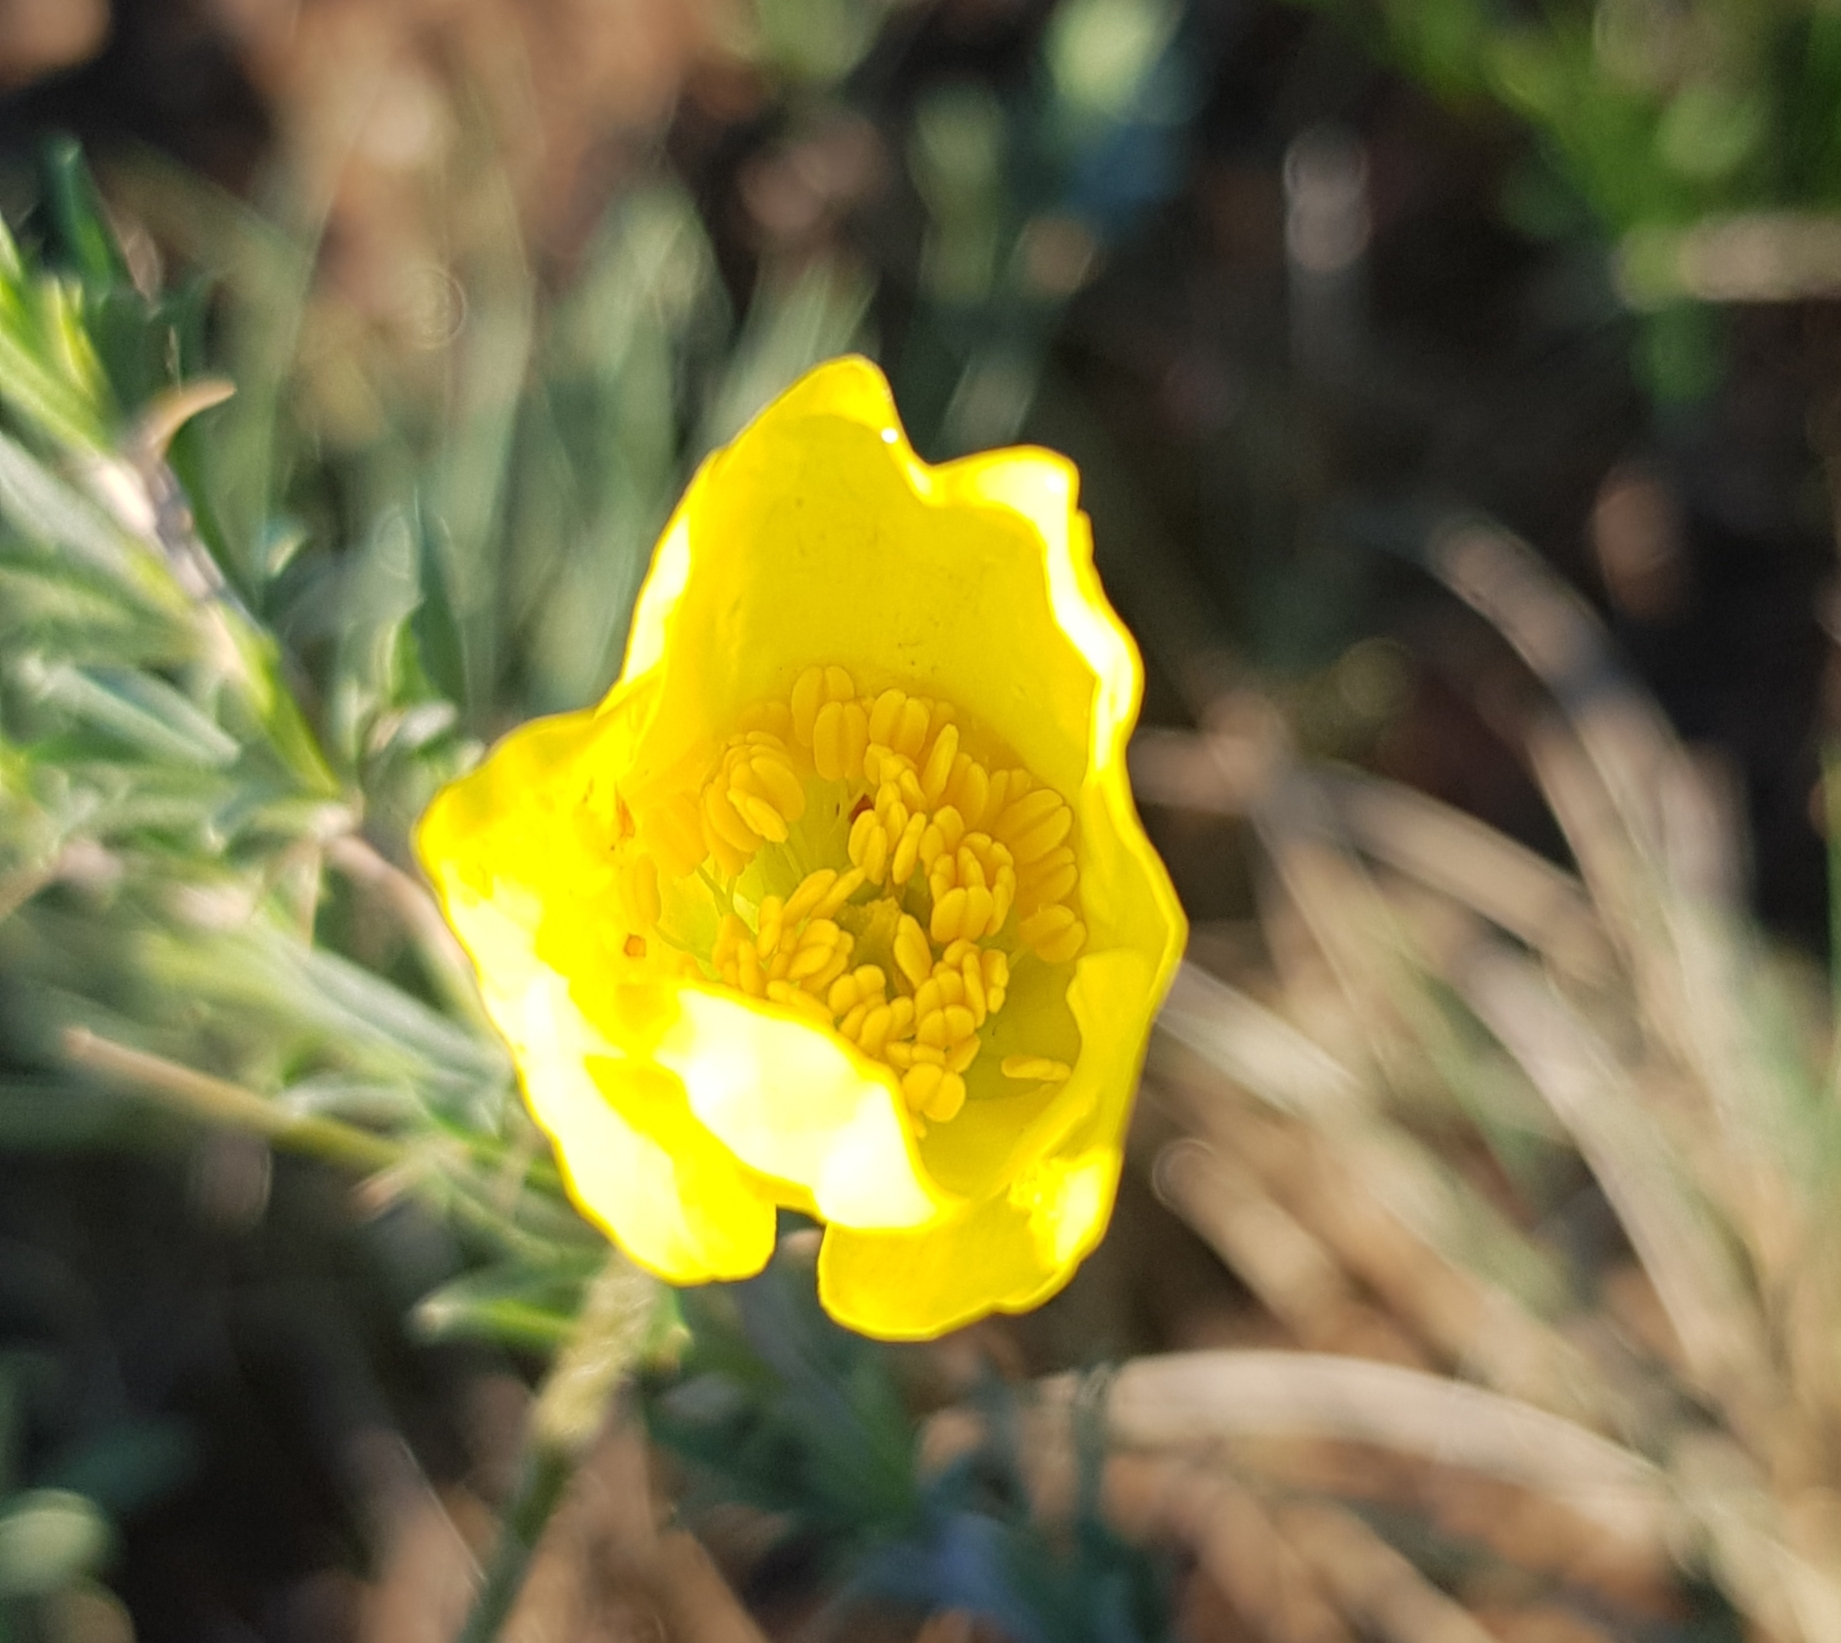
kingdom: Plantae
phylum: Tracheophyta
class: Magnoliopsida
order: Ranunculales
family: Papaveraceae
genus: Papaver
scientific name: Papaver nudicaule
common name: Arctic poppy
